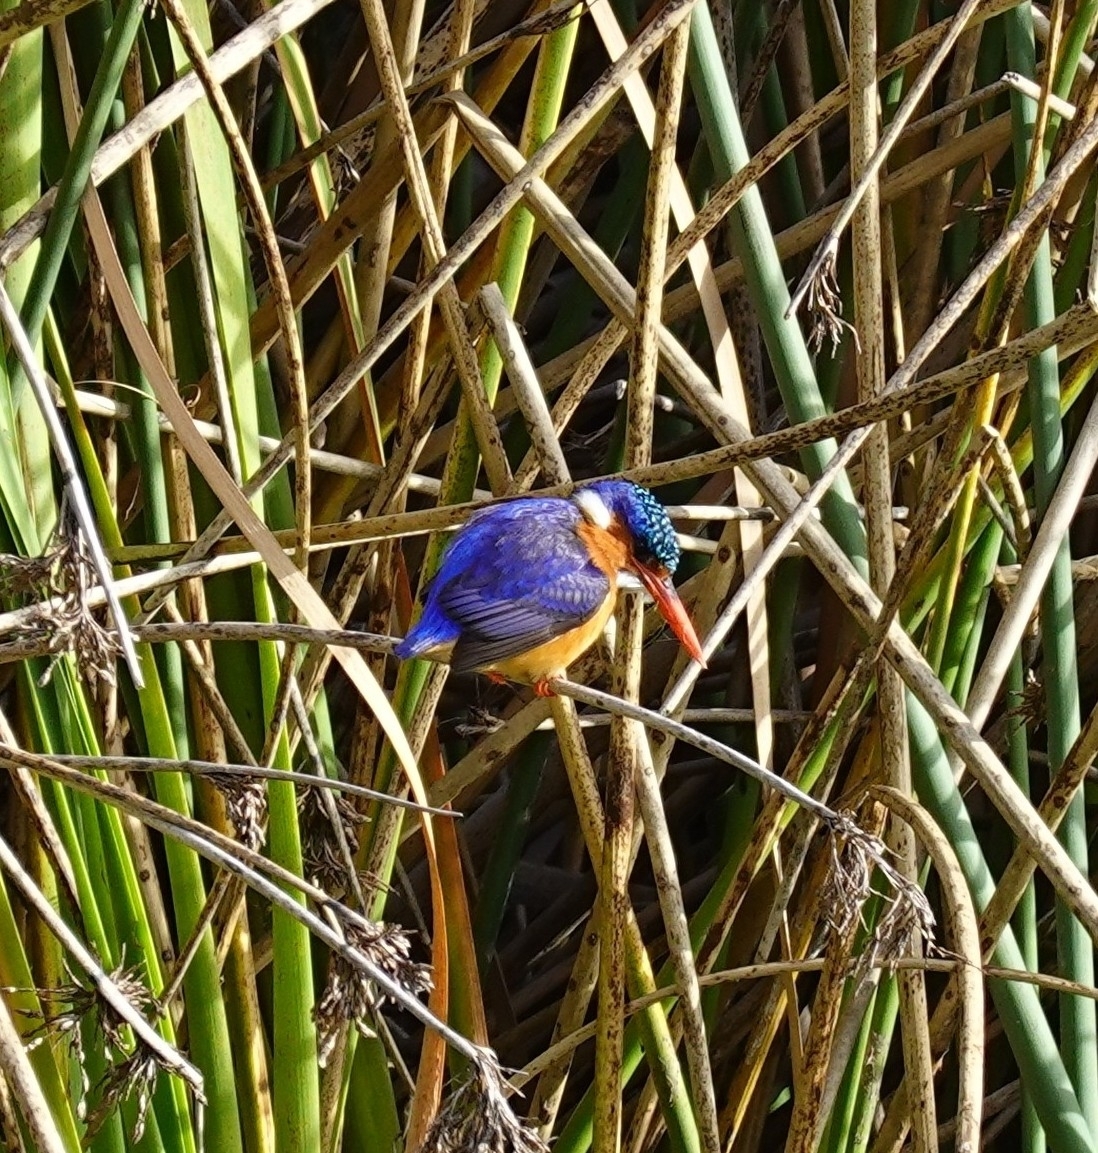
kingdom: Animalia
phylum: Chordata
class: Aves
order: Coraciiformes
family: Alcedinidae
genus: Corythornis
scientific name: Corythornis cristatus
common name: Malachite kingfisher
